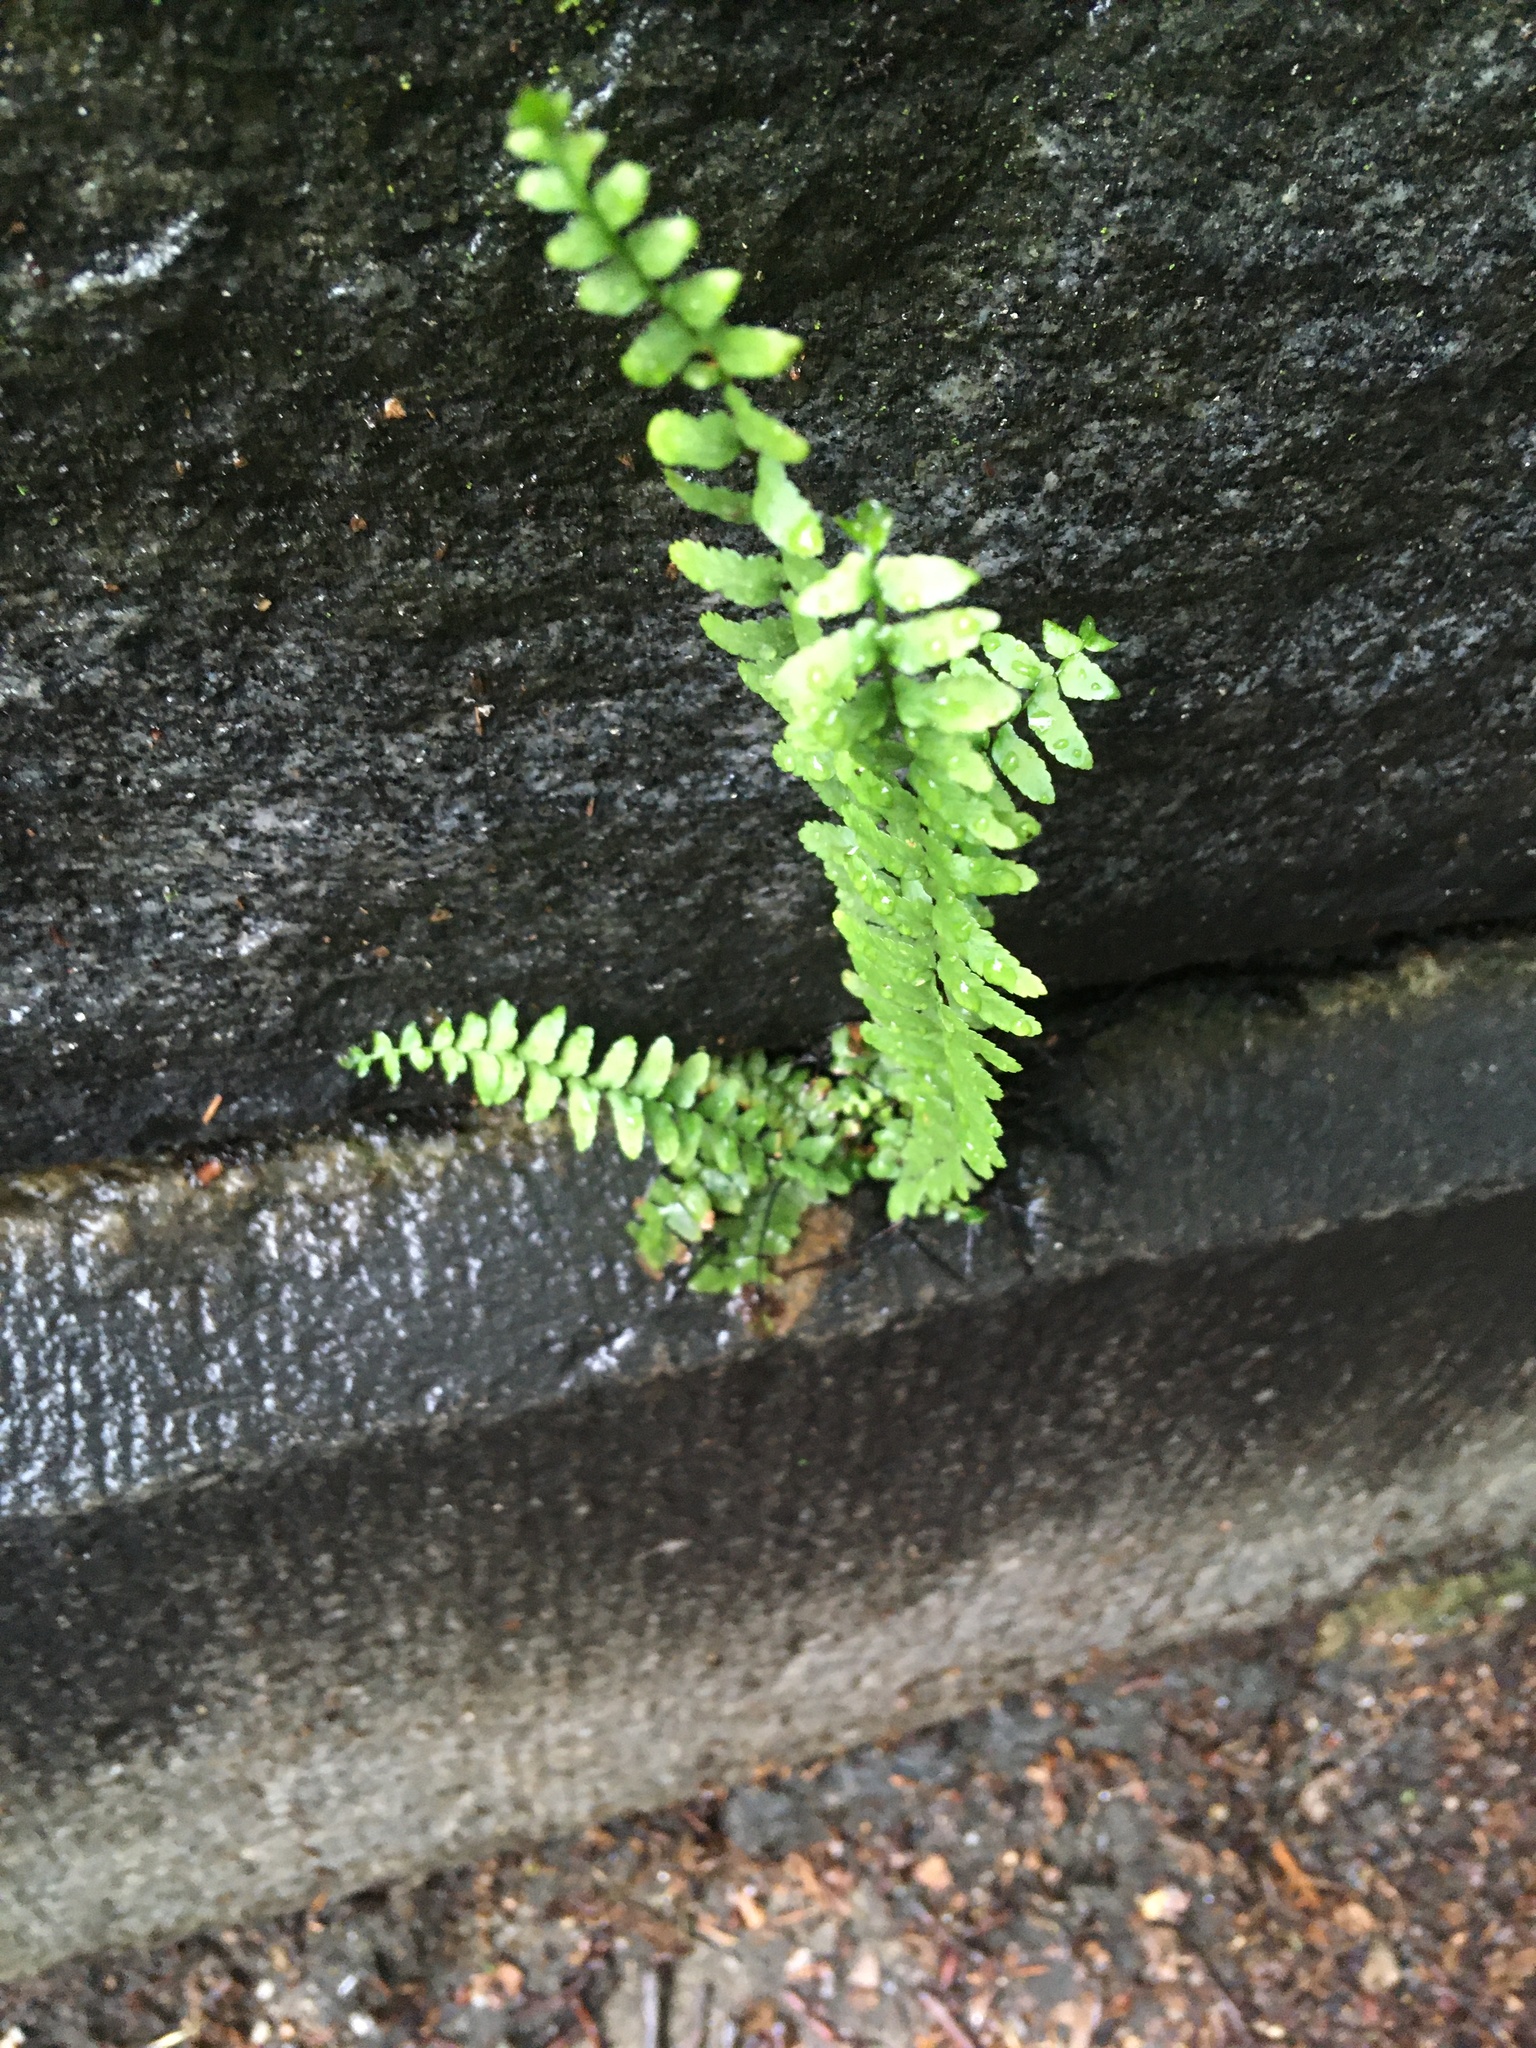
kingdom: Plantae
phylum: Tracheophyta
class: Polypodiopsida
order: Polypodiales
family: Aspleniaceae
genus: Asplenium
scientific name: Asplenium platyneuron
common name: Ebony spleenwort
